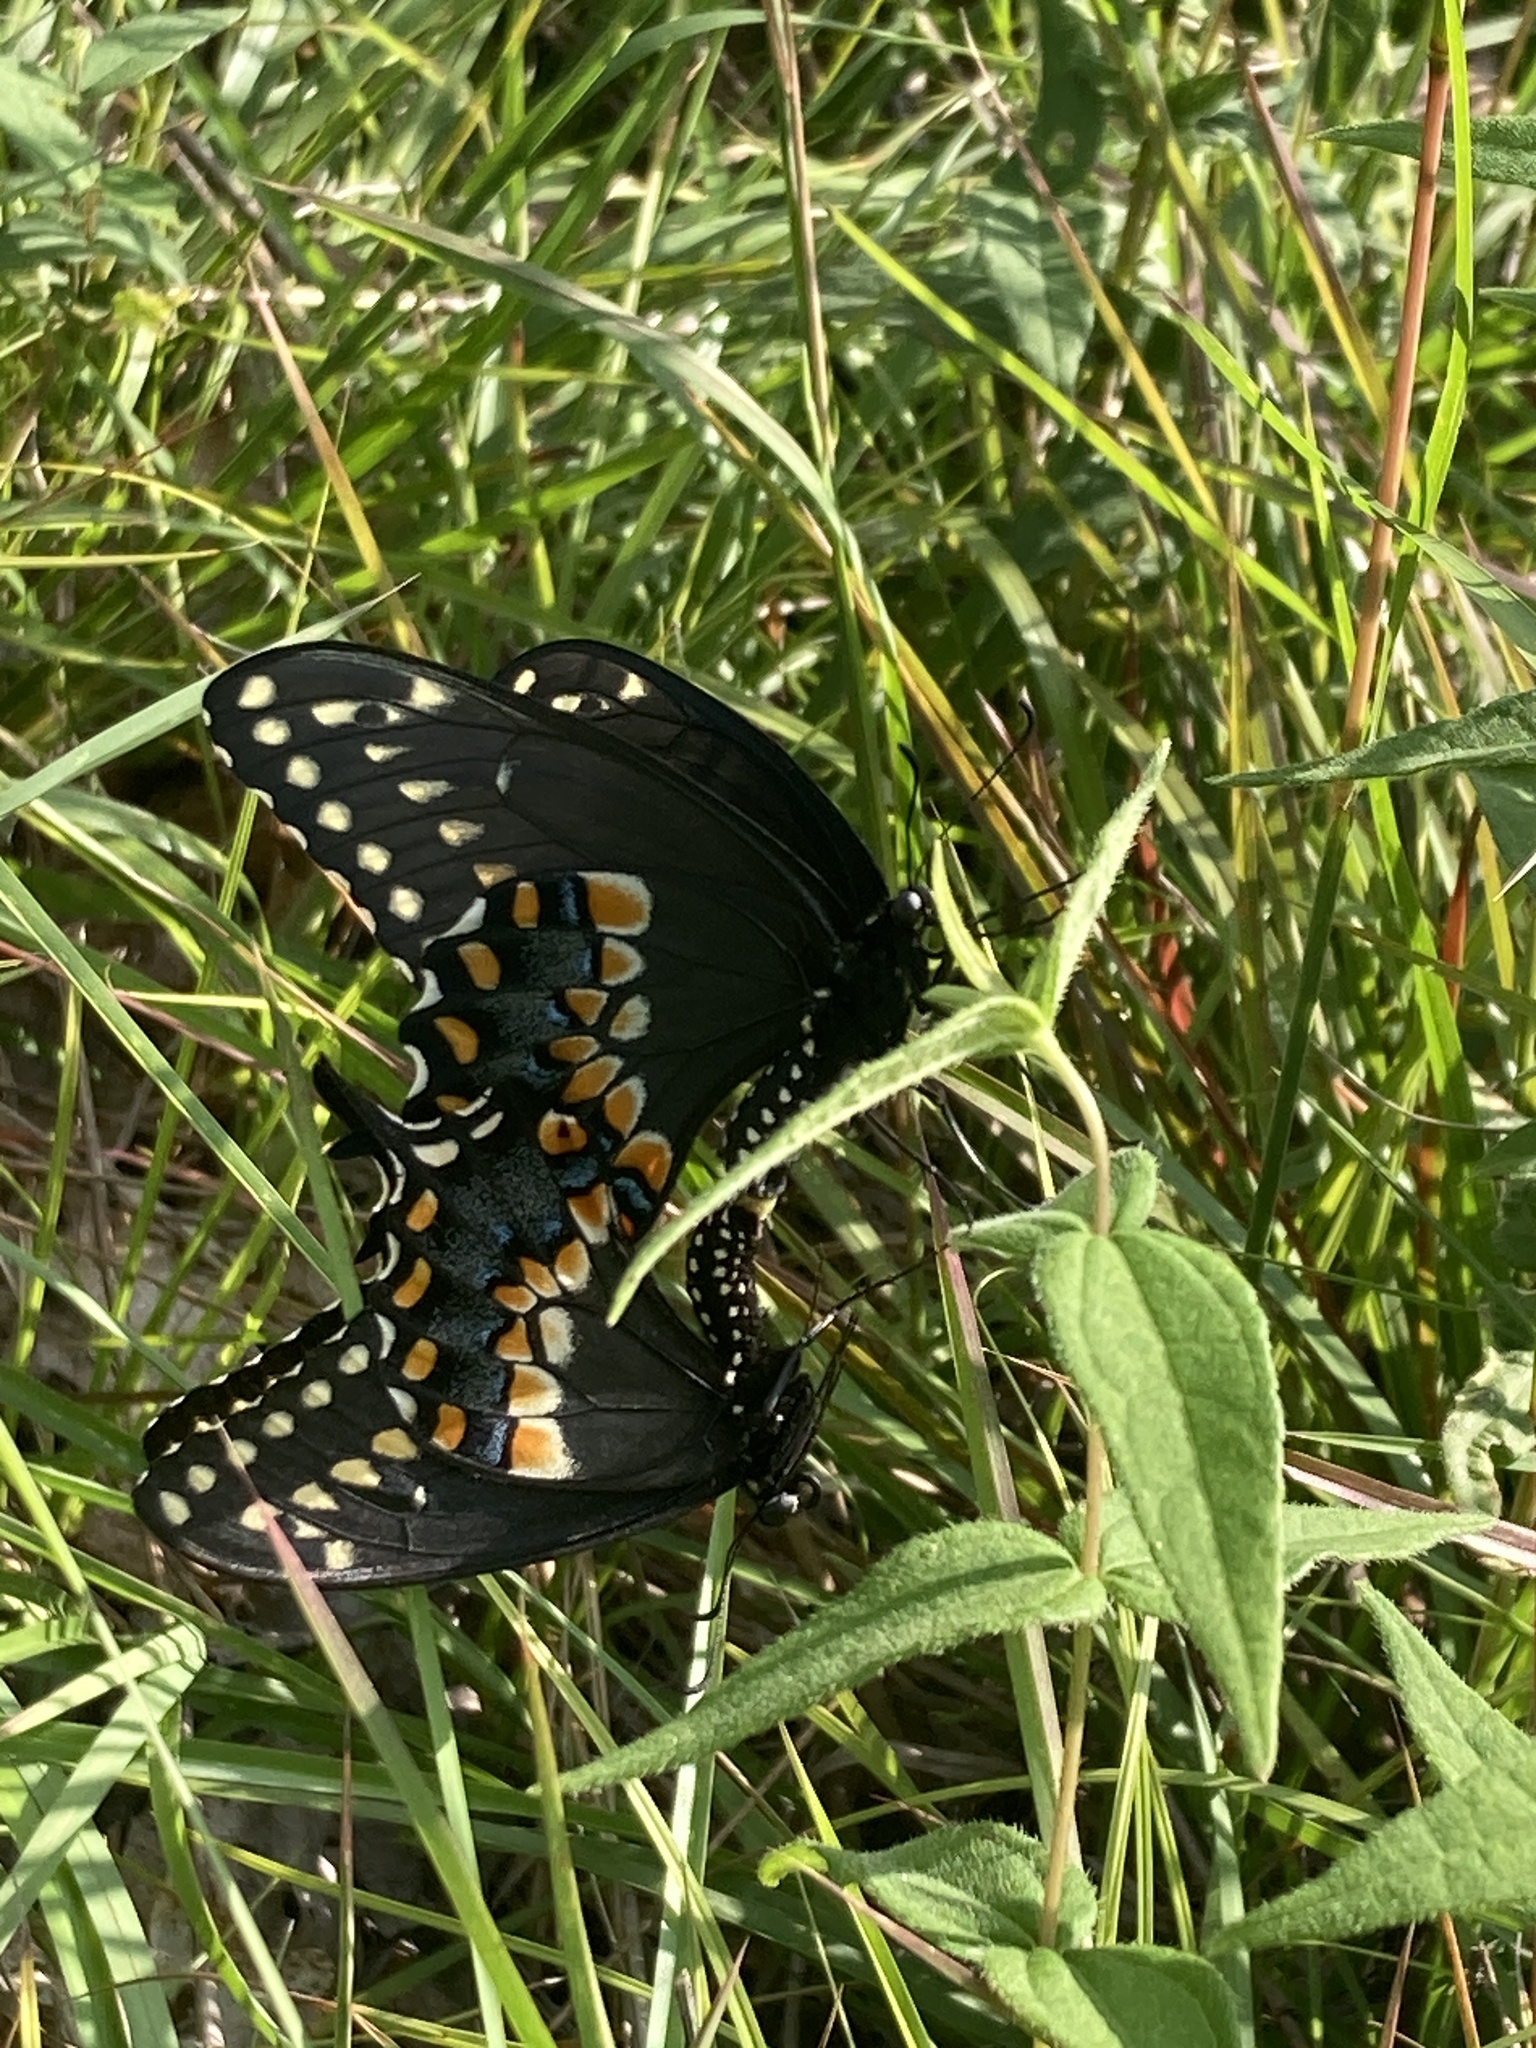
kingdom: Animalia
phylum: Arthropoda
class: Insecta
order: Lepidoptera
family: Papilionidae
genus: Papilio
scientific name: Papilio polyxenes
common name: Black swallowtail
